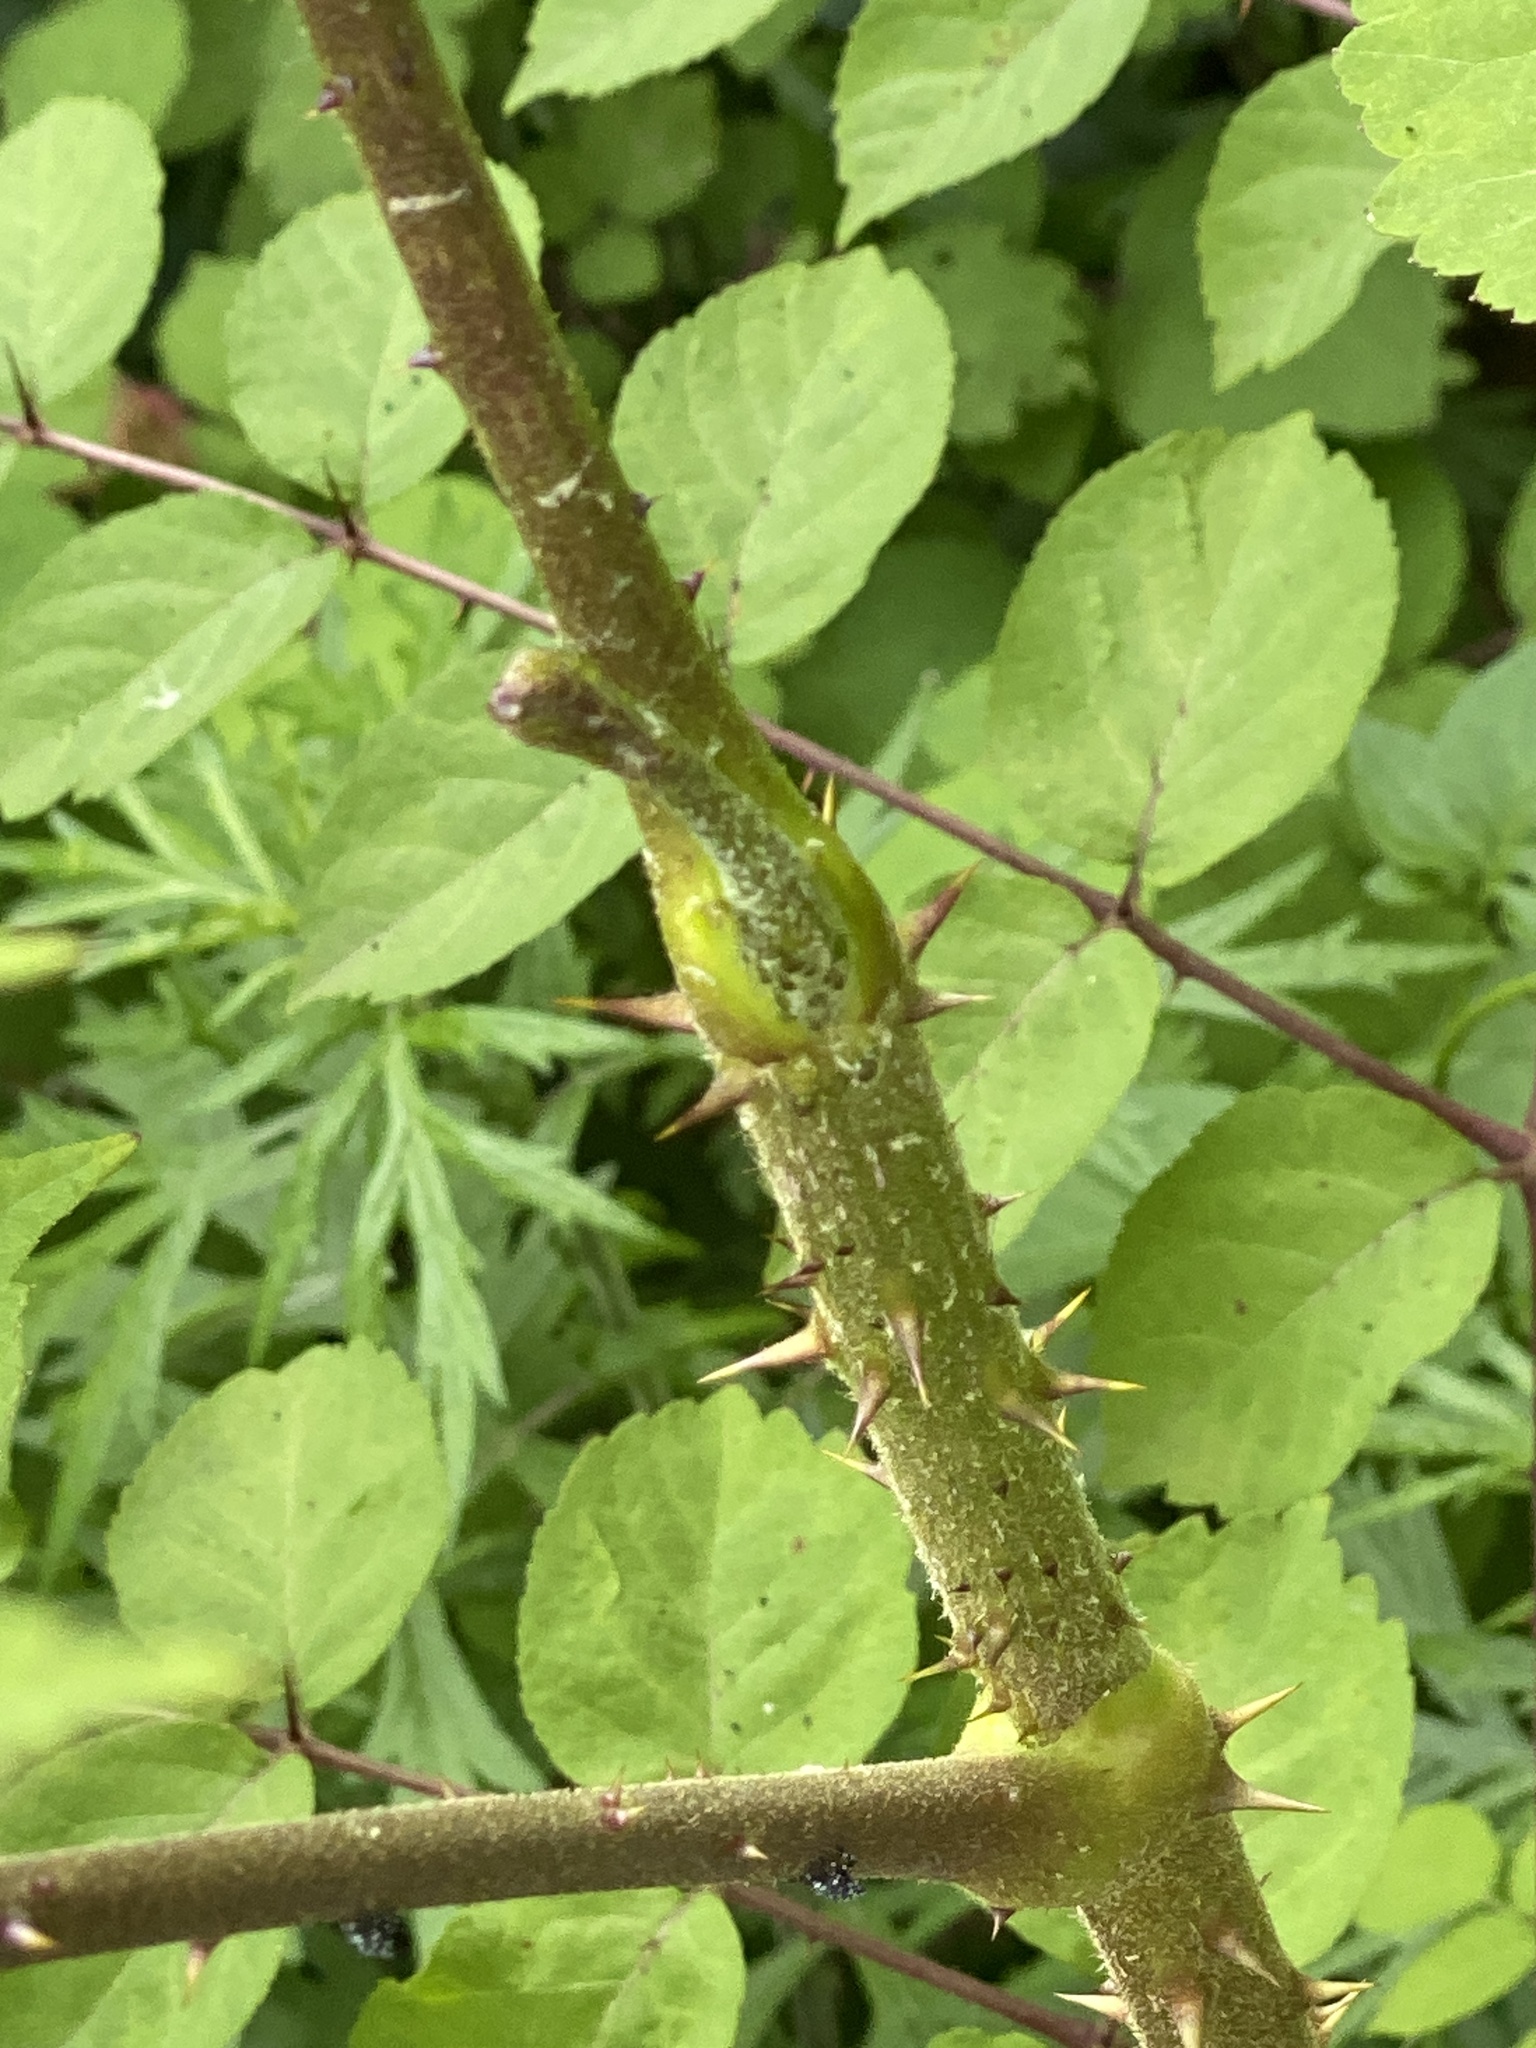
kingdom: Plantae
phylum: Tracheophyta
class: Magnoliopsida
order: Apiales
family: Araliaceae
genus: Aralia
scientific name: Aralia elata
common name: Japanese angelica-tree
